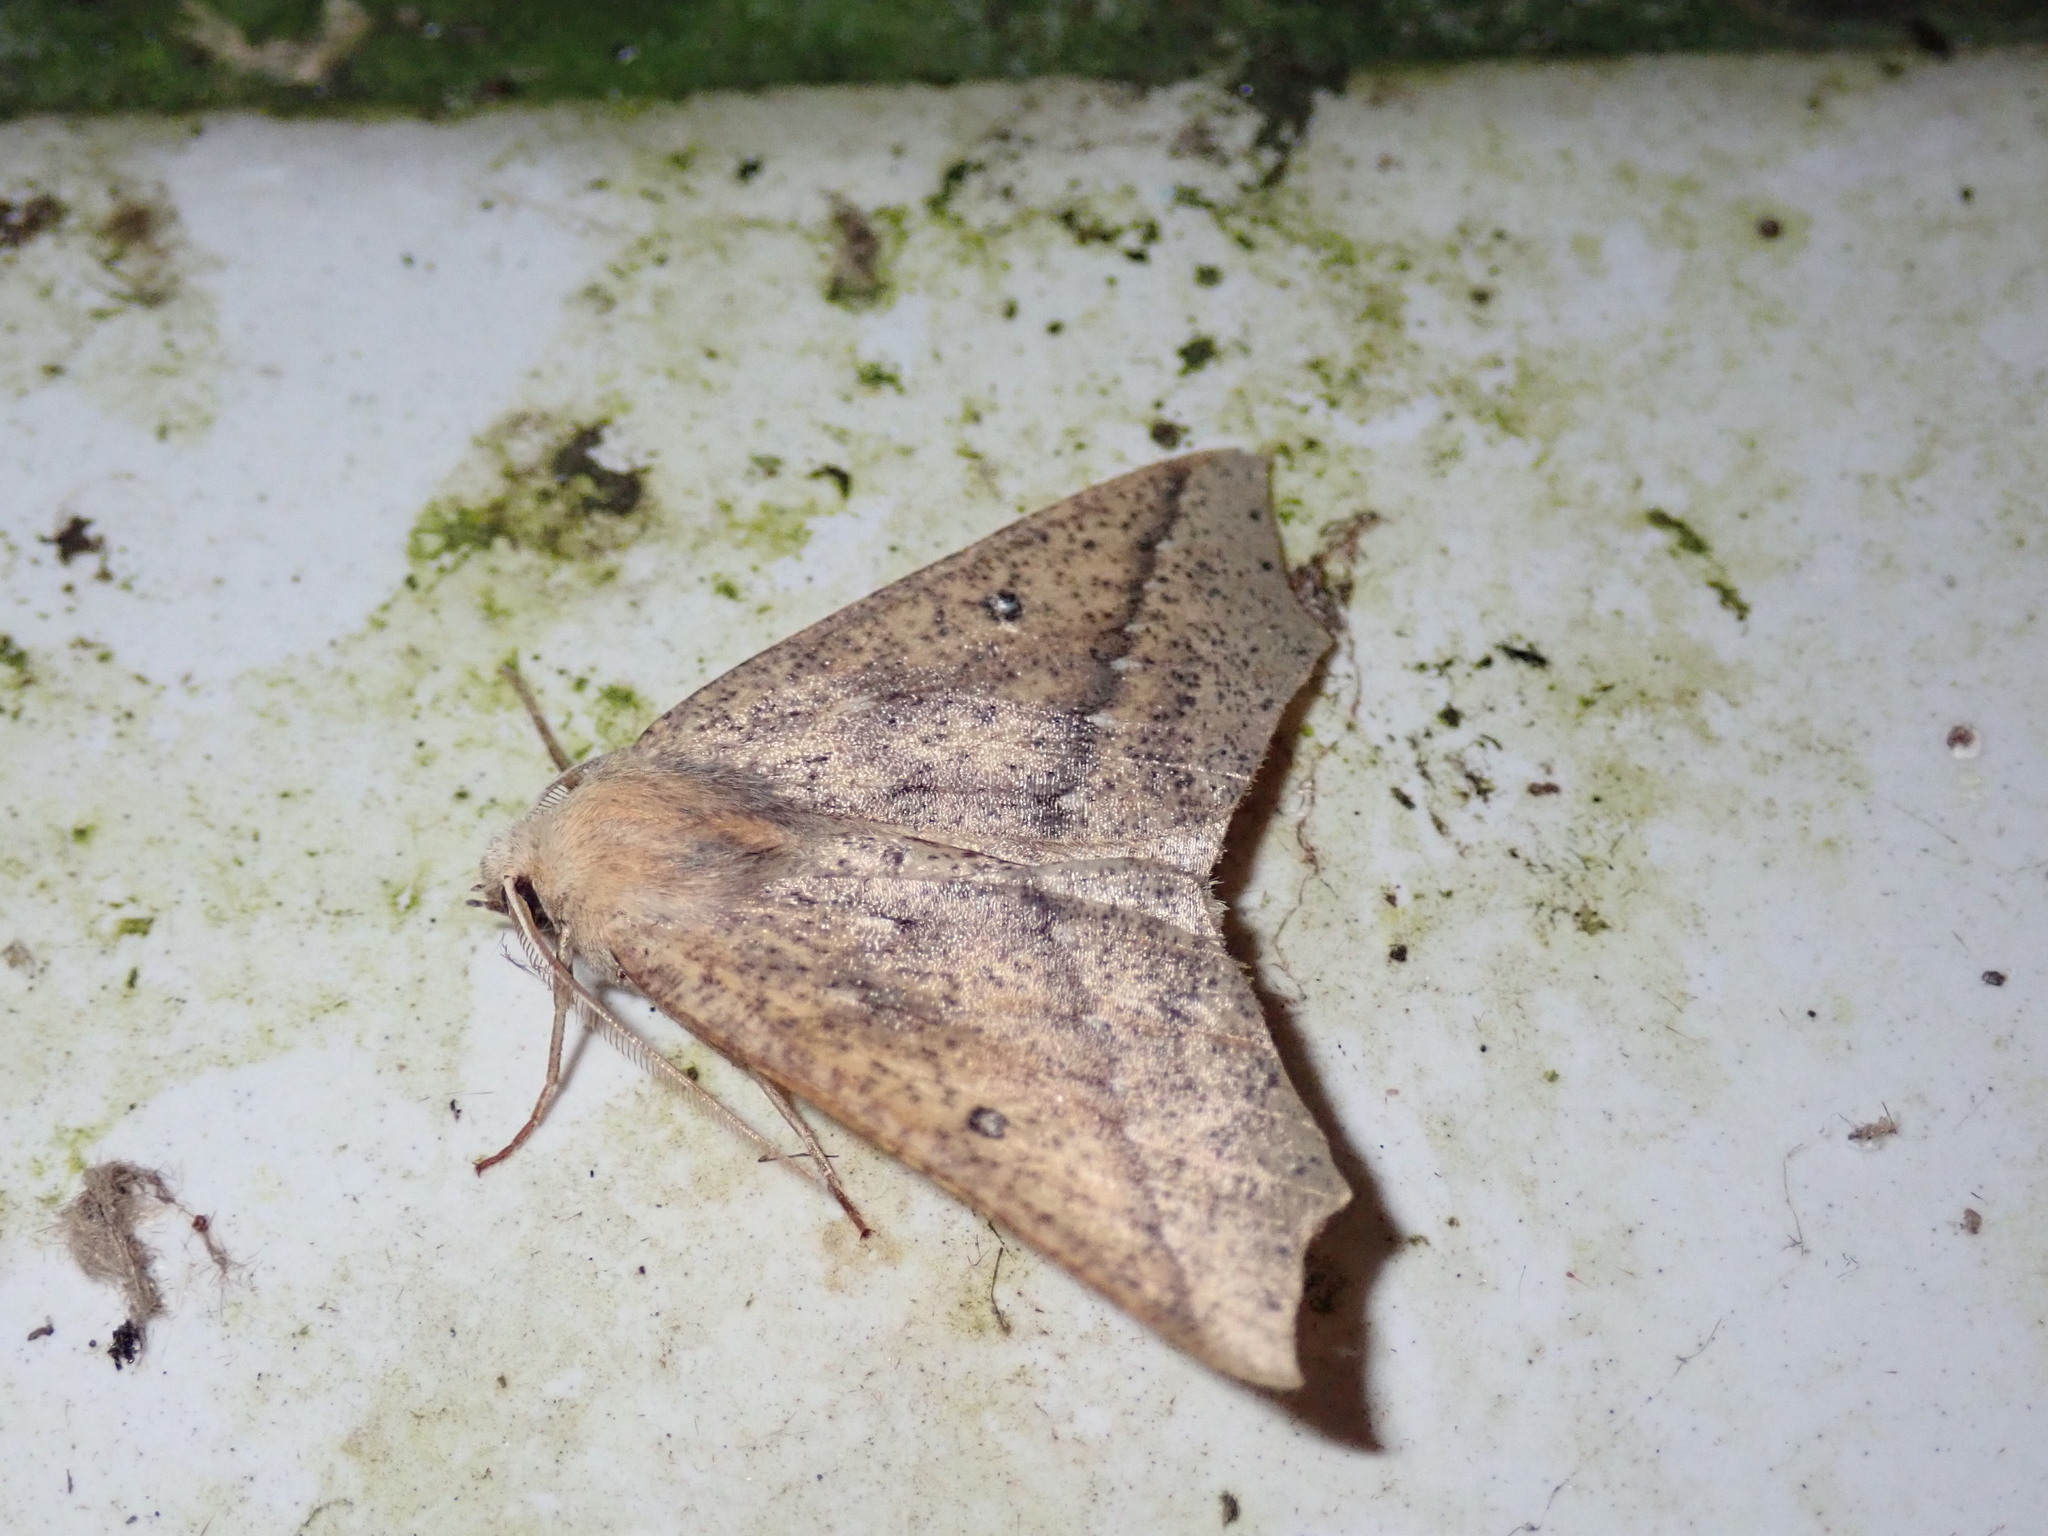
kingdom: Animalia
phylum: Arthropoda
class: Insecta
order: Lepidoptera
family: Geometridae
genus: Odontopera
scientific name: Odontopera albiguttulata
